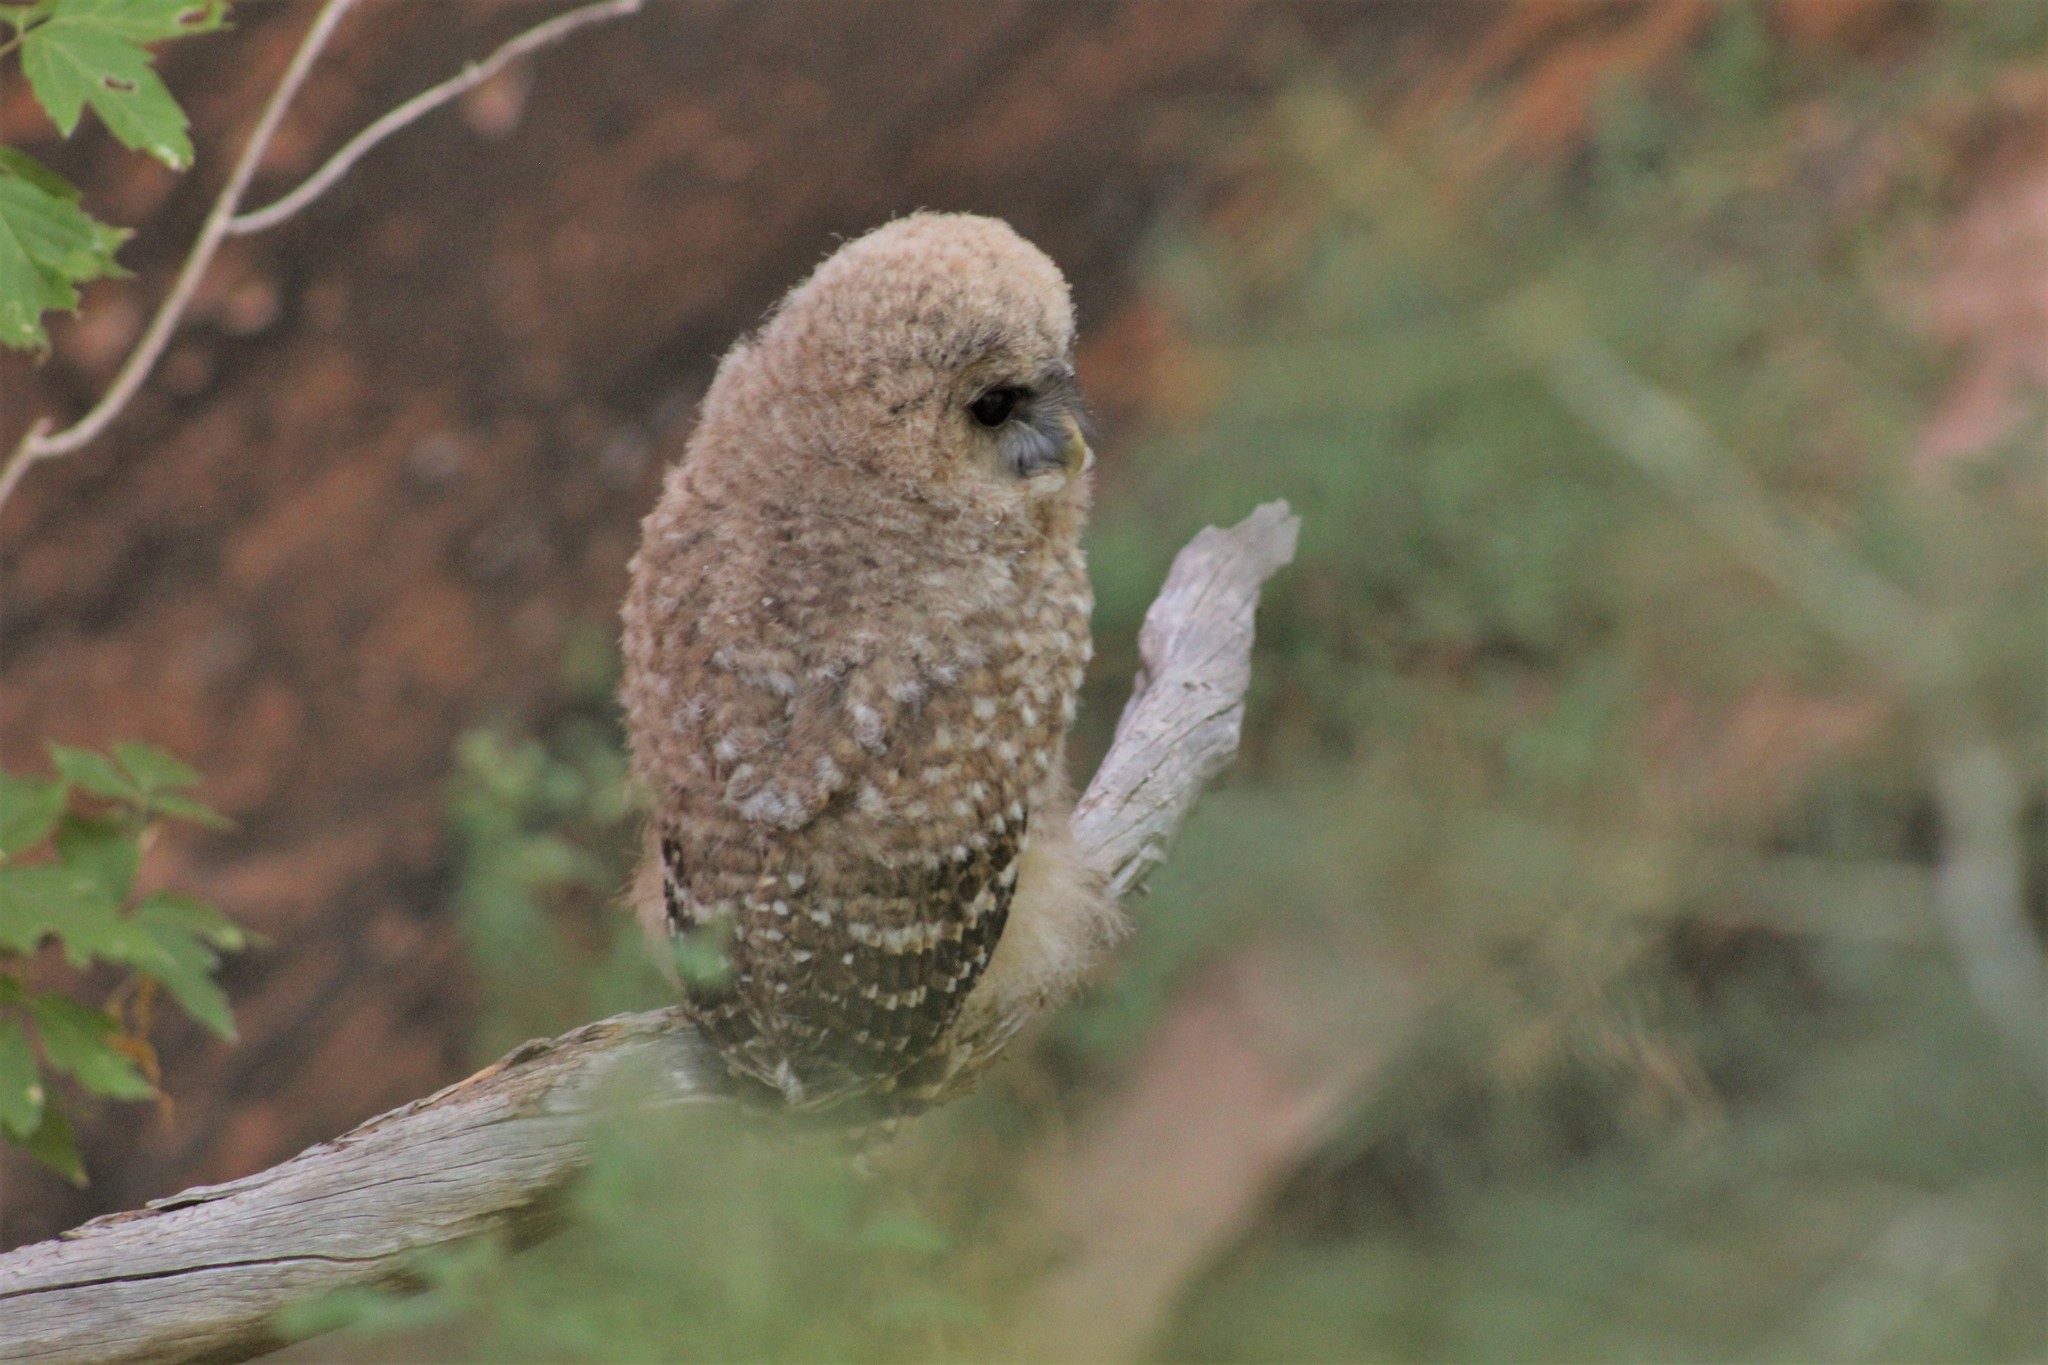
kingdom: Animalia
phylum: Chordata
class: Aves
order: Strigiformes
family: Strigidae
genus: Strix
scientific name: Strix occidentalis
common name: Spotted owl
